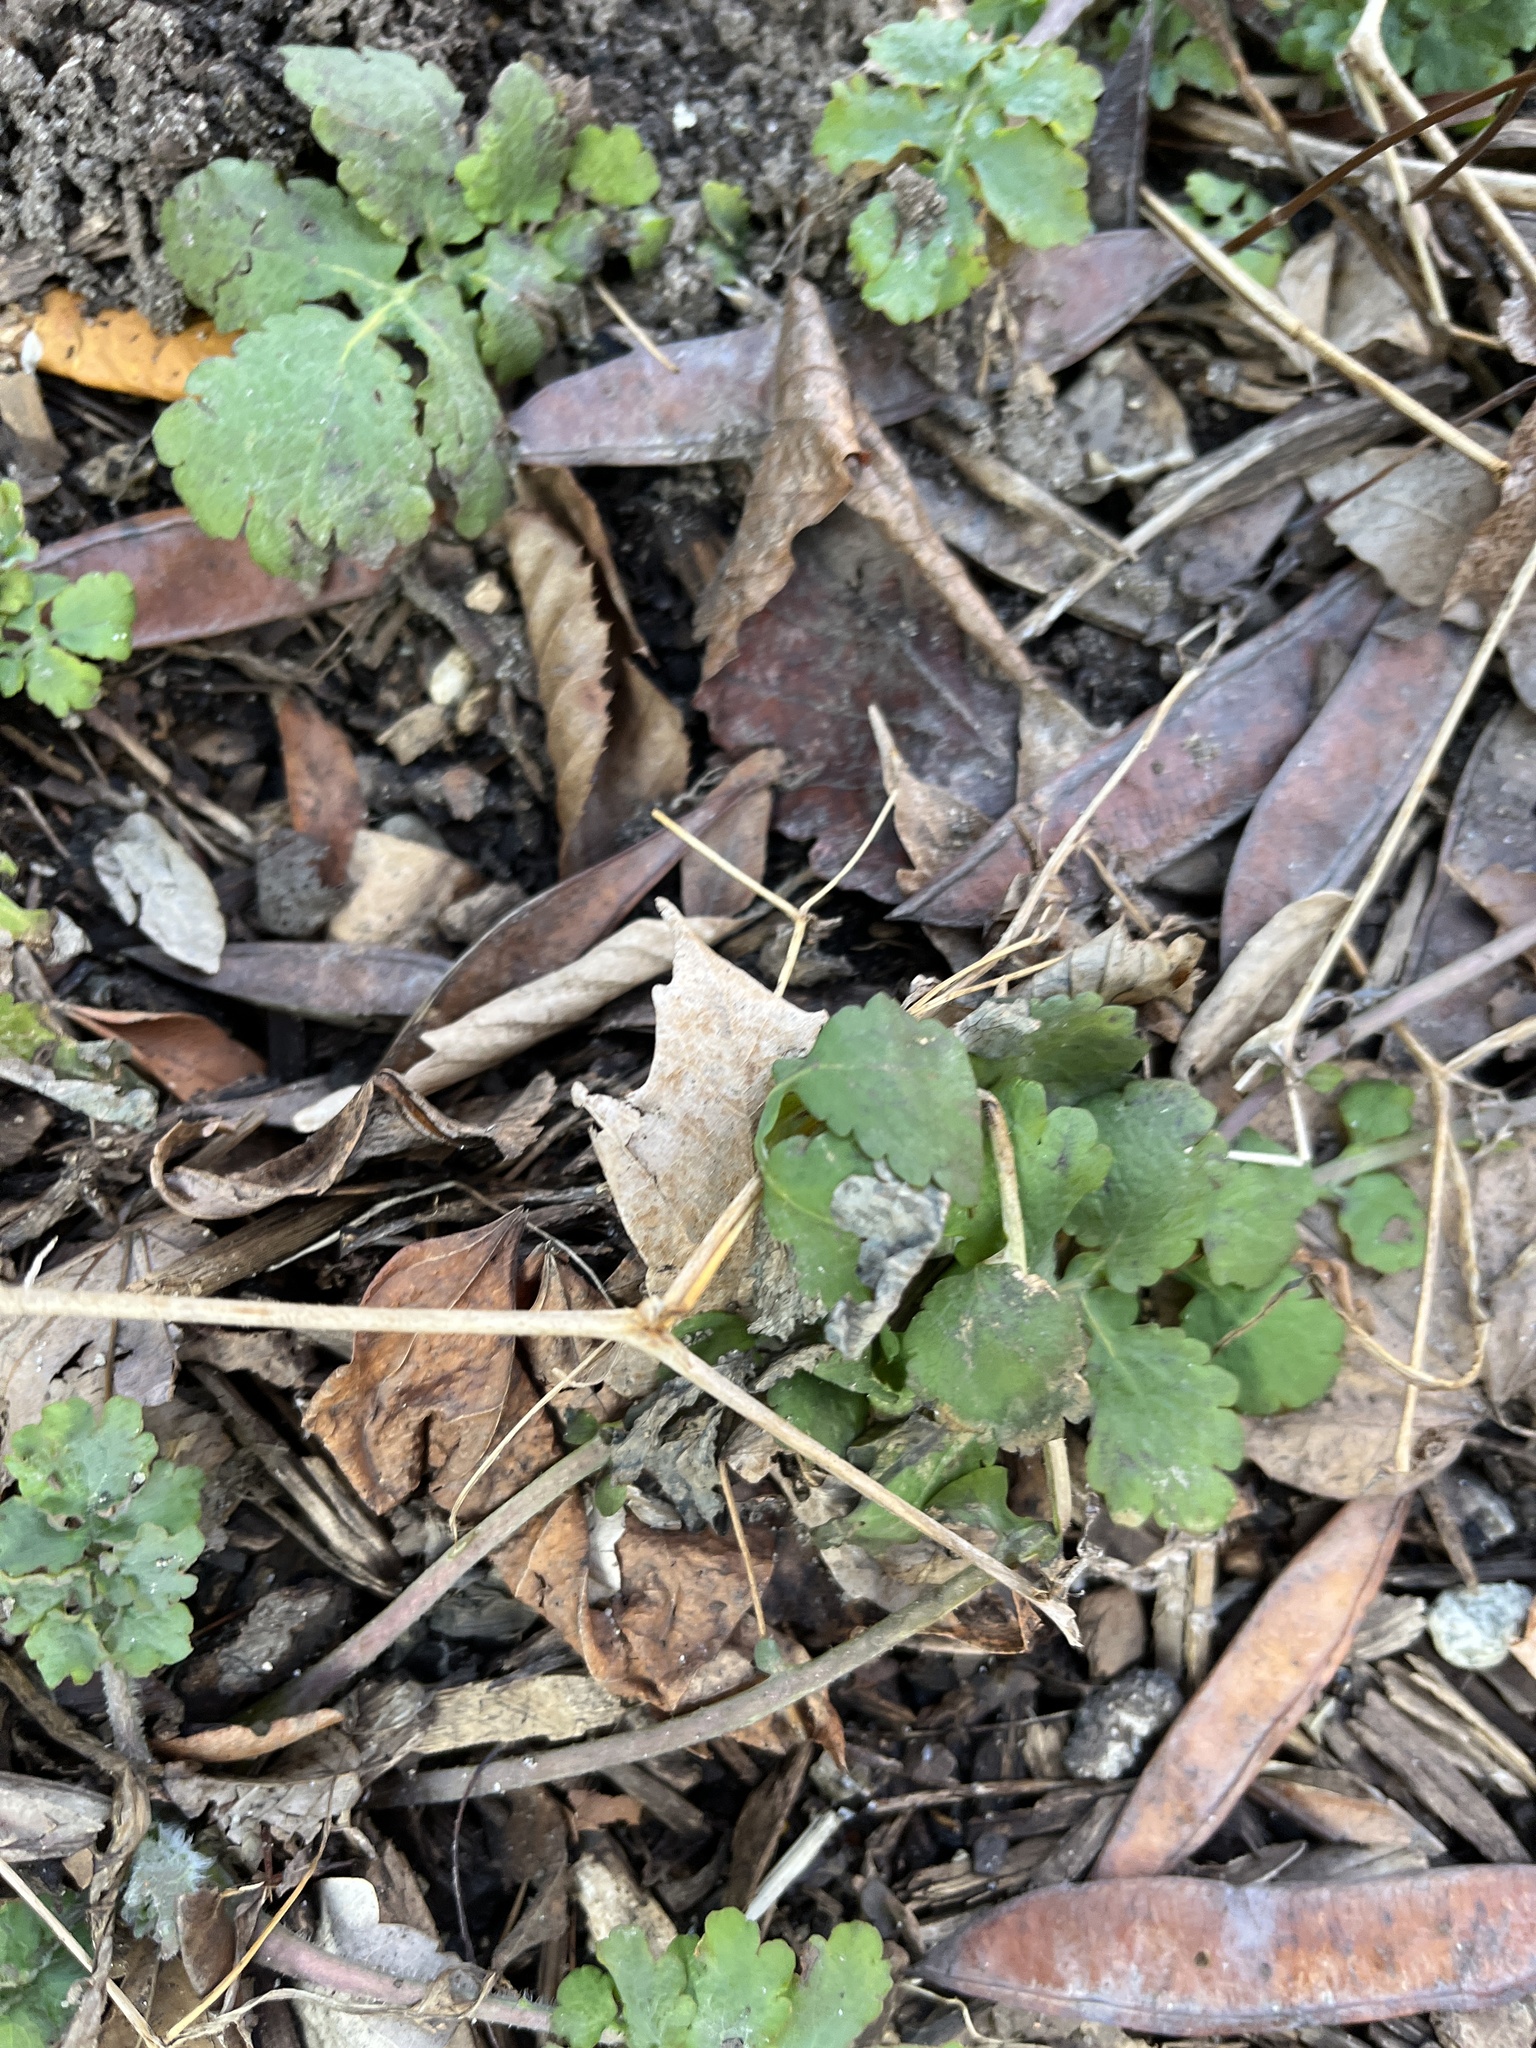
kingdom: Plantae
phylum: Tracheophyta
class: Magnoliopsida
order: Ranunculales
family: Papaveraceae
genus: Chelidonium
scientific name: Chelidonium majus
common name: Greater celandine
